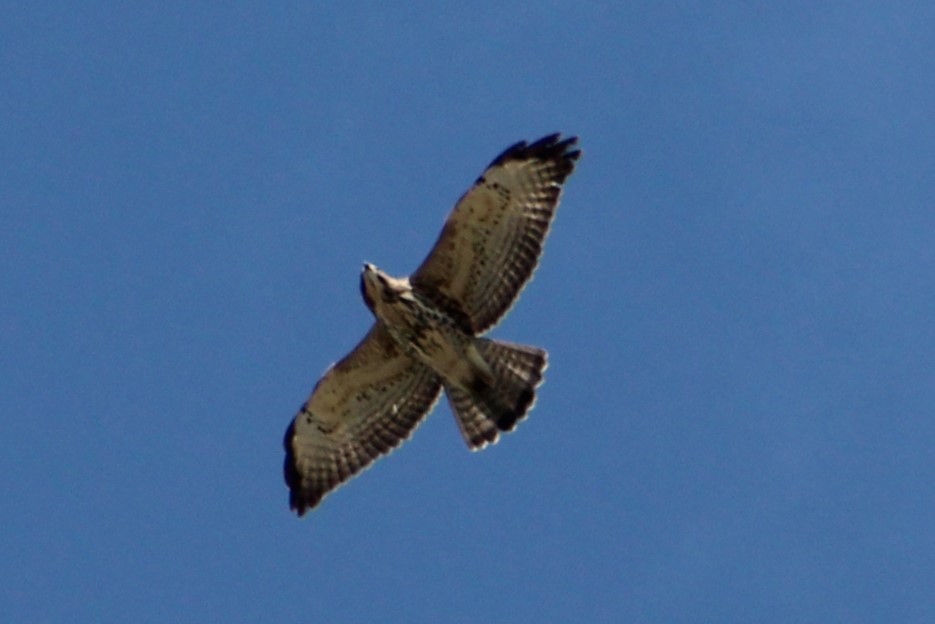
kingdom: Animalia
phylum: Chordata
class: Aves
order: Accipitriformes
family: Accipitridae
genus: Buteo
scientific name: Buteo platypterus
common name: Broad-winged hawk
